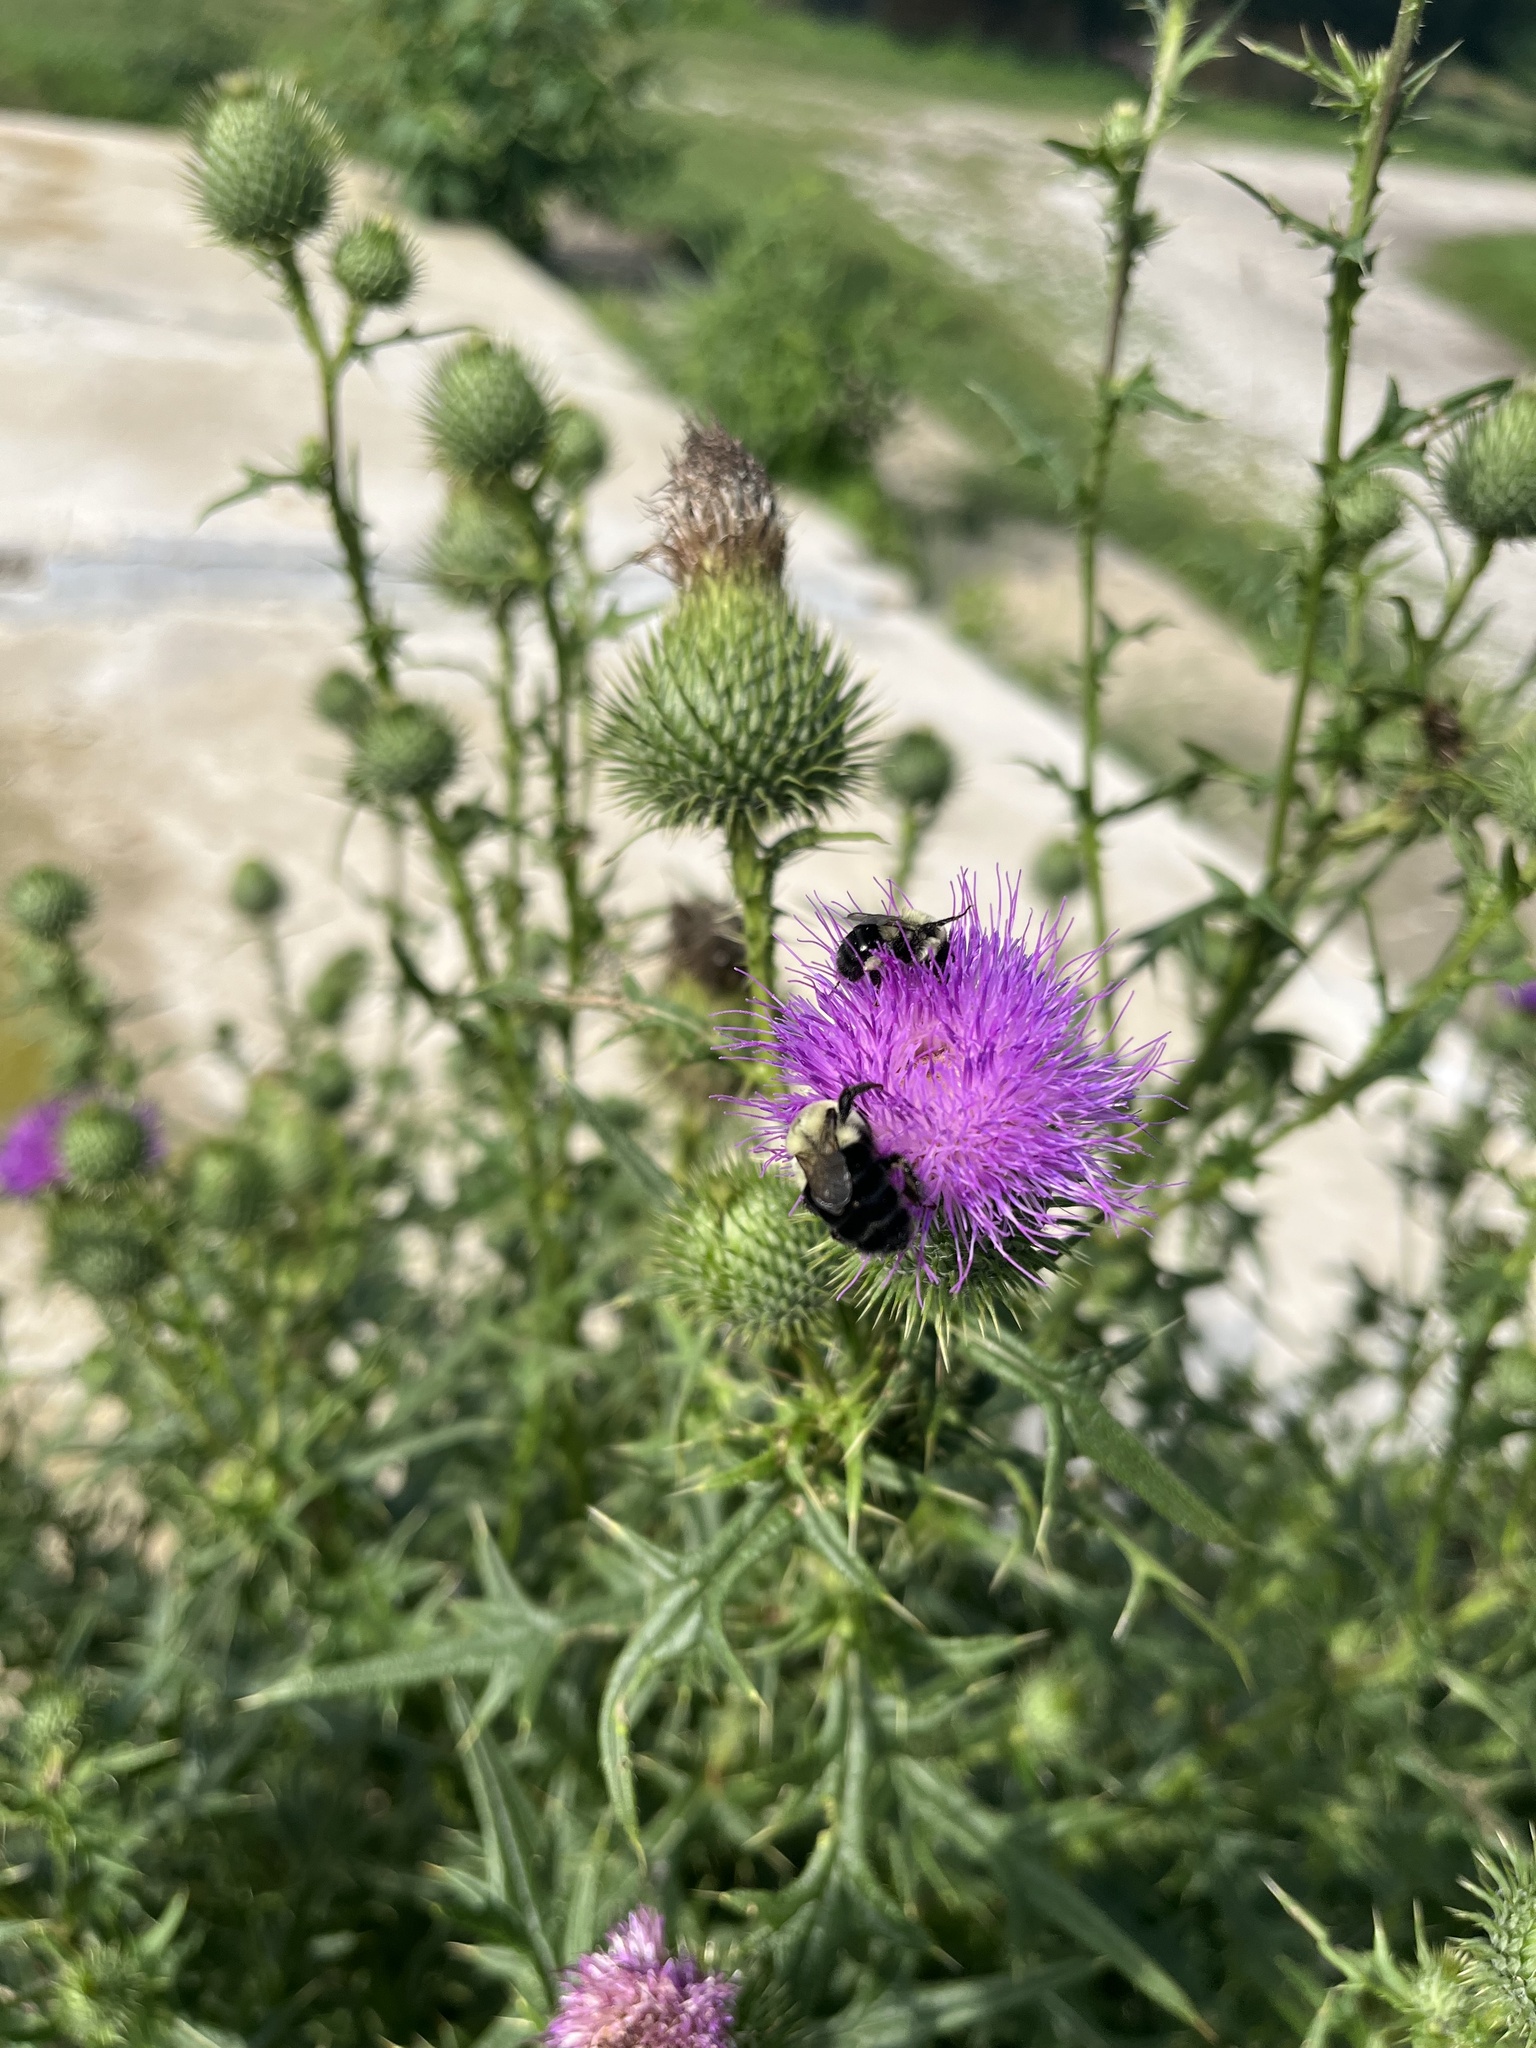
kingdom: Animalia
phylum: Arthropoda
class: Insecta
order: Hymenoptera
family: Apidae
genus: Bombus
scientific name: Bombus impatiens
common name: Common eastern bumble bee
